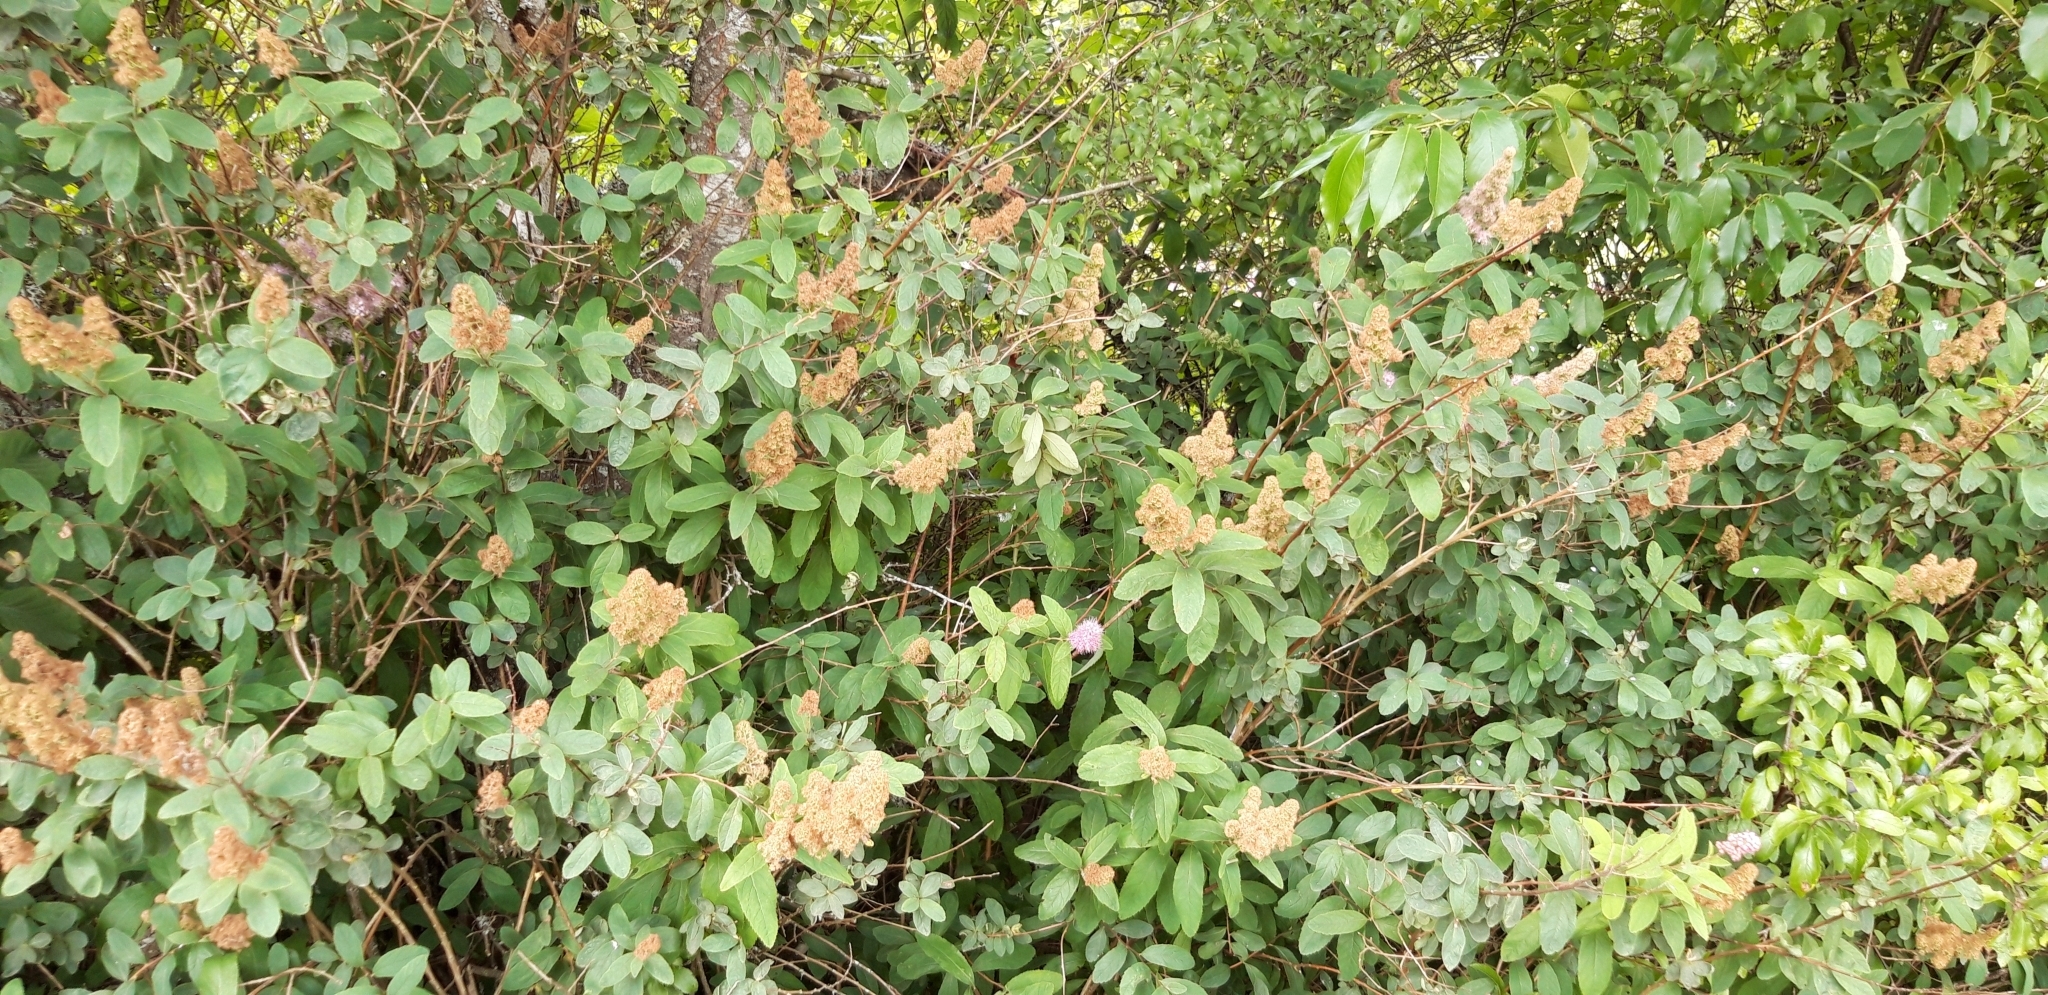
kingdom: Plantae
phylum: Tracheophyta
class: Magnoliopsida
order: Rosales
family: Rosaceae
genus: Spiraea
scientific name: Spiraea douglasii
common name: Steeplebush
